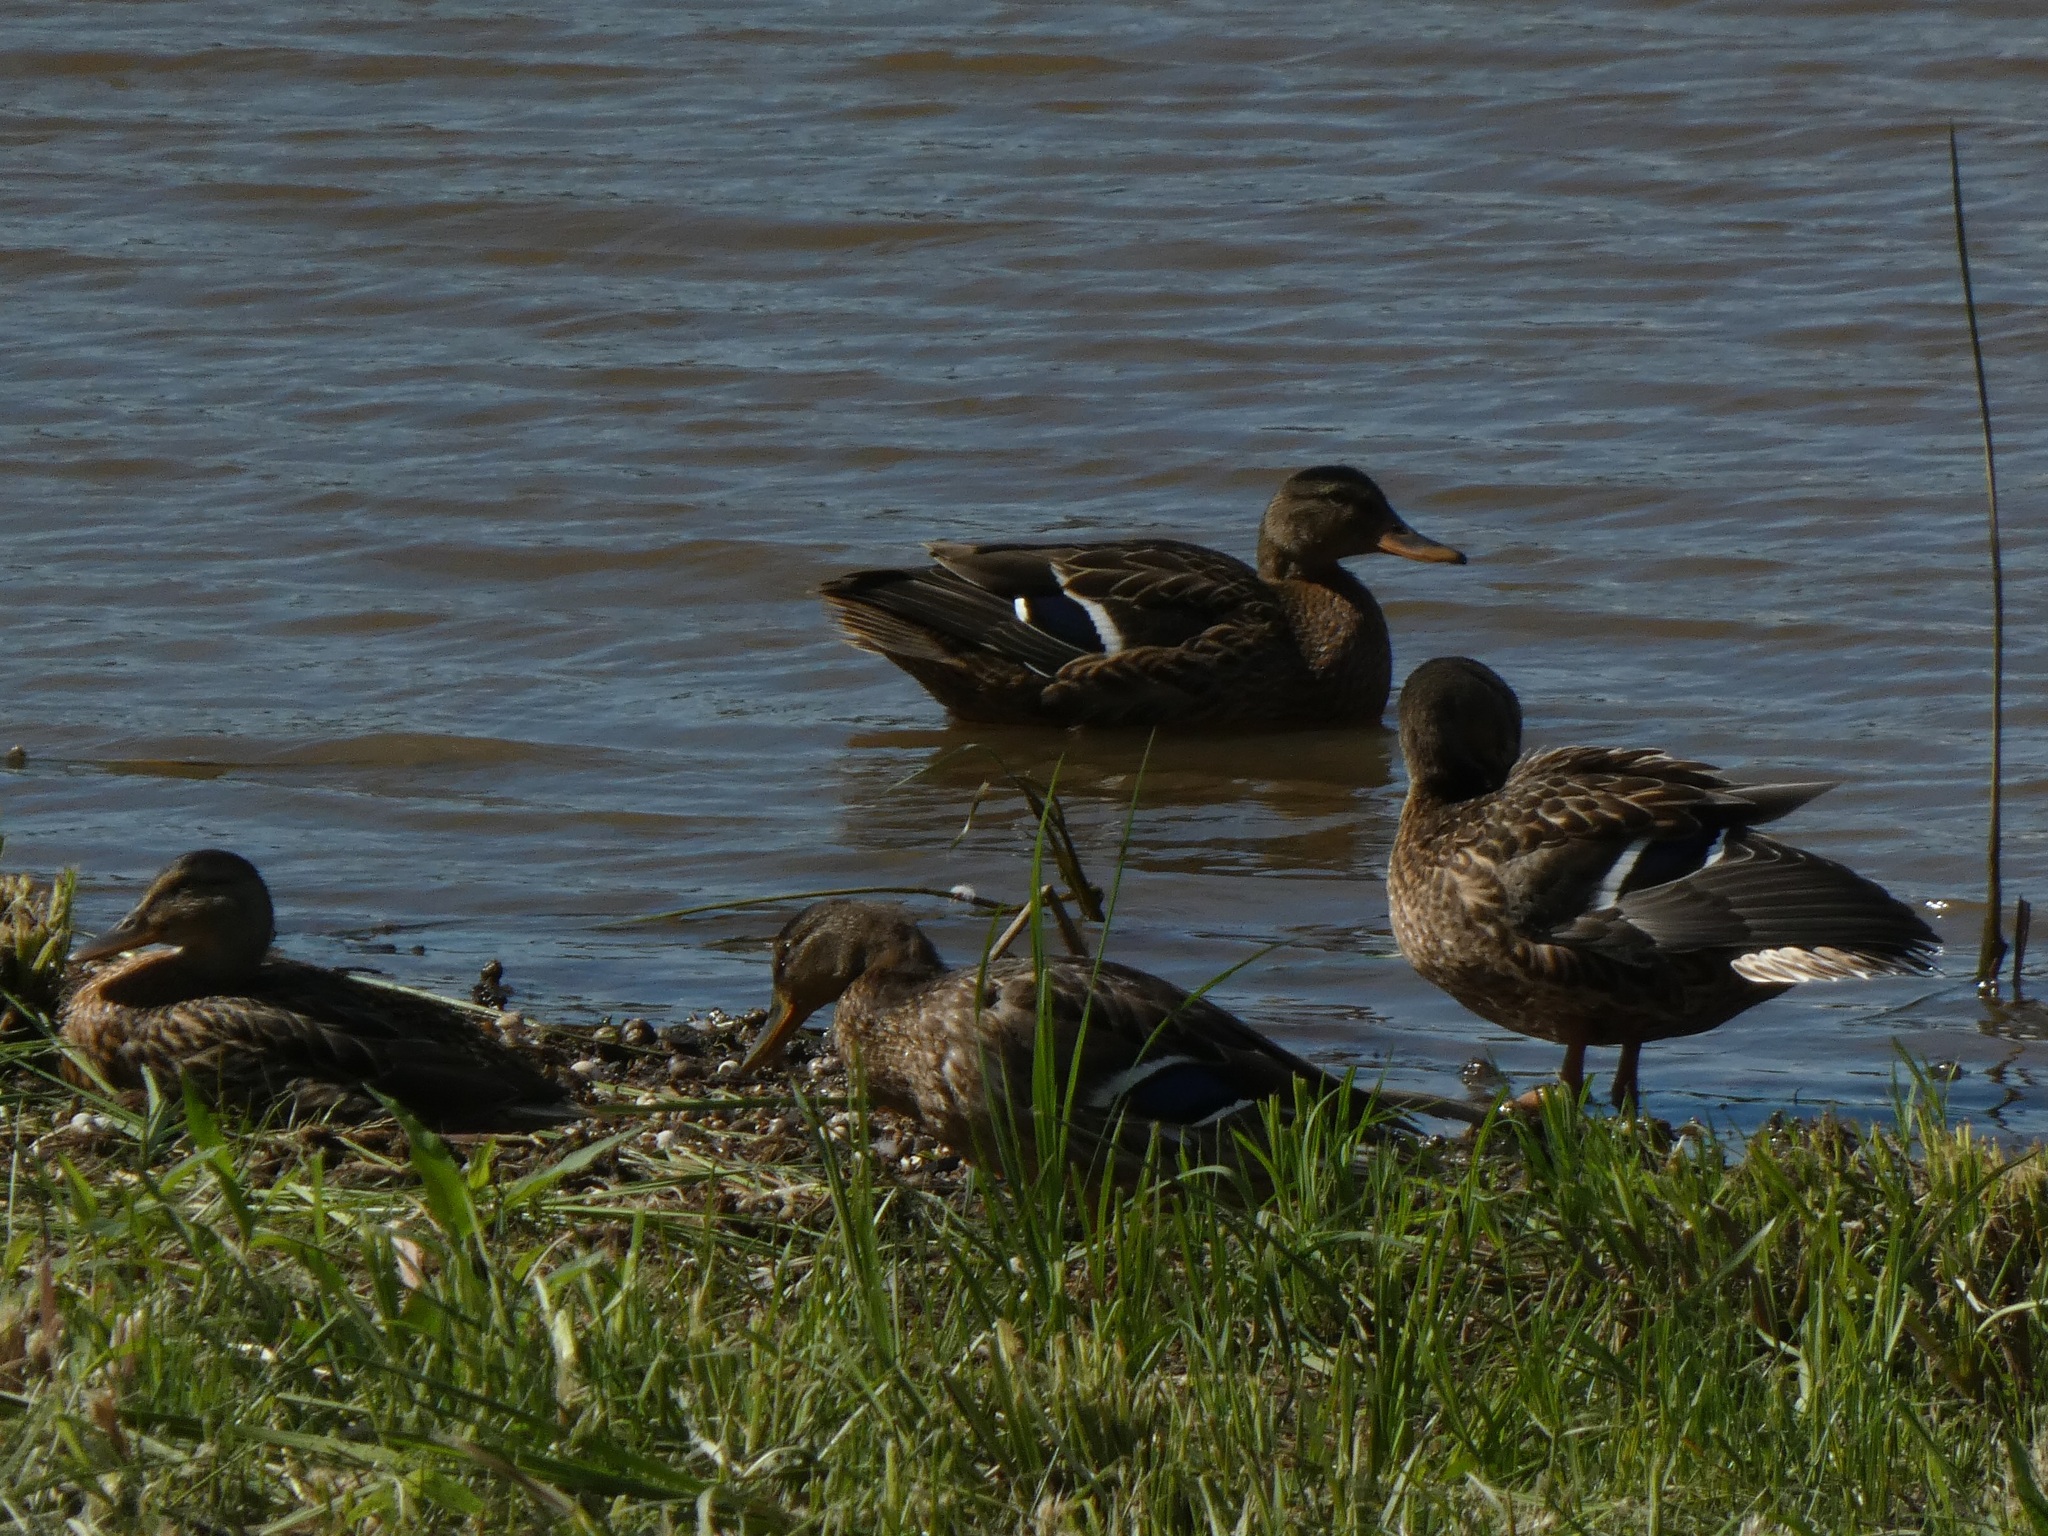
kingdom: Animalia
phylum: Chordata
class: Aves
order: Anseriformes
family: Anatidae
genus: Anas
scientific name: Anas platyrhynchos
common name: Mallard
